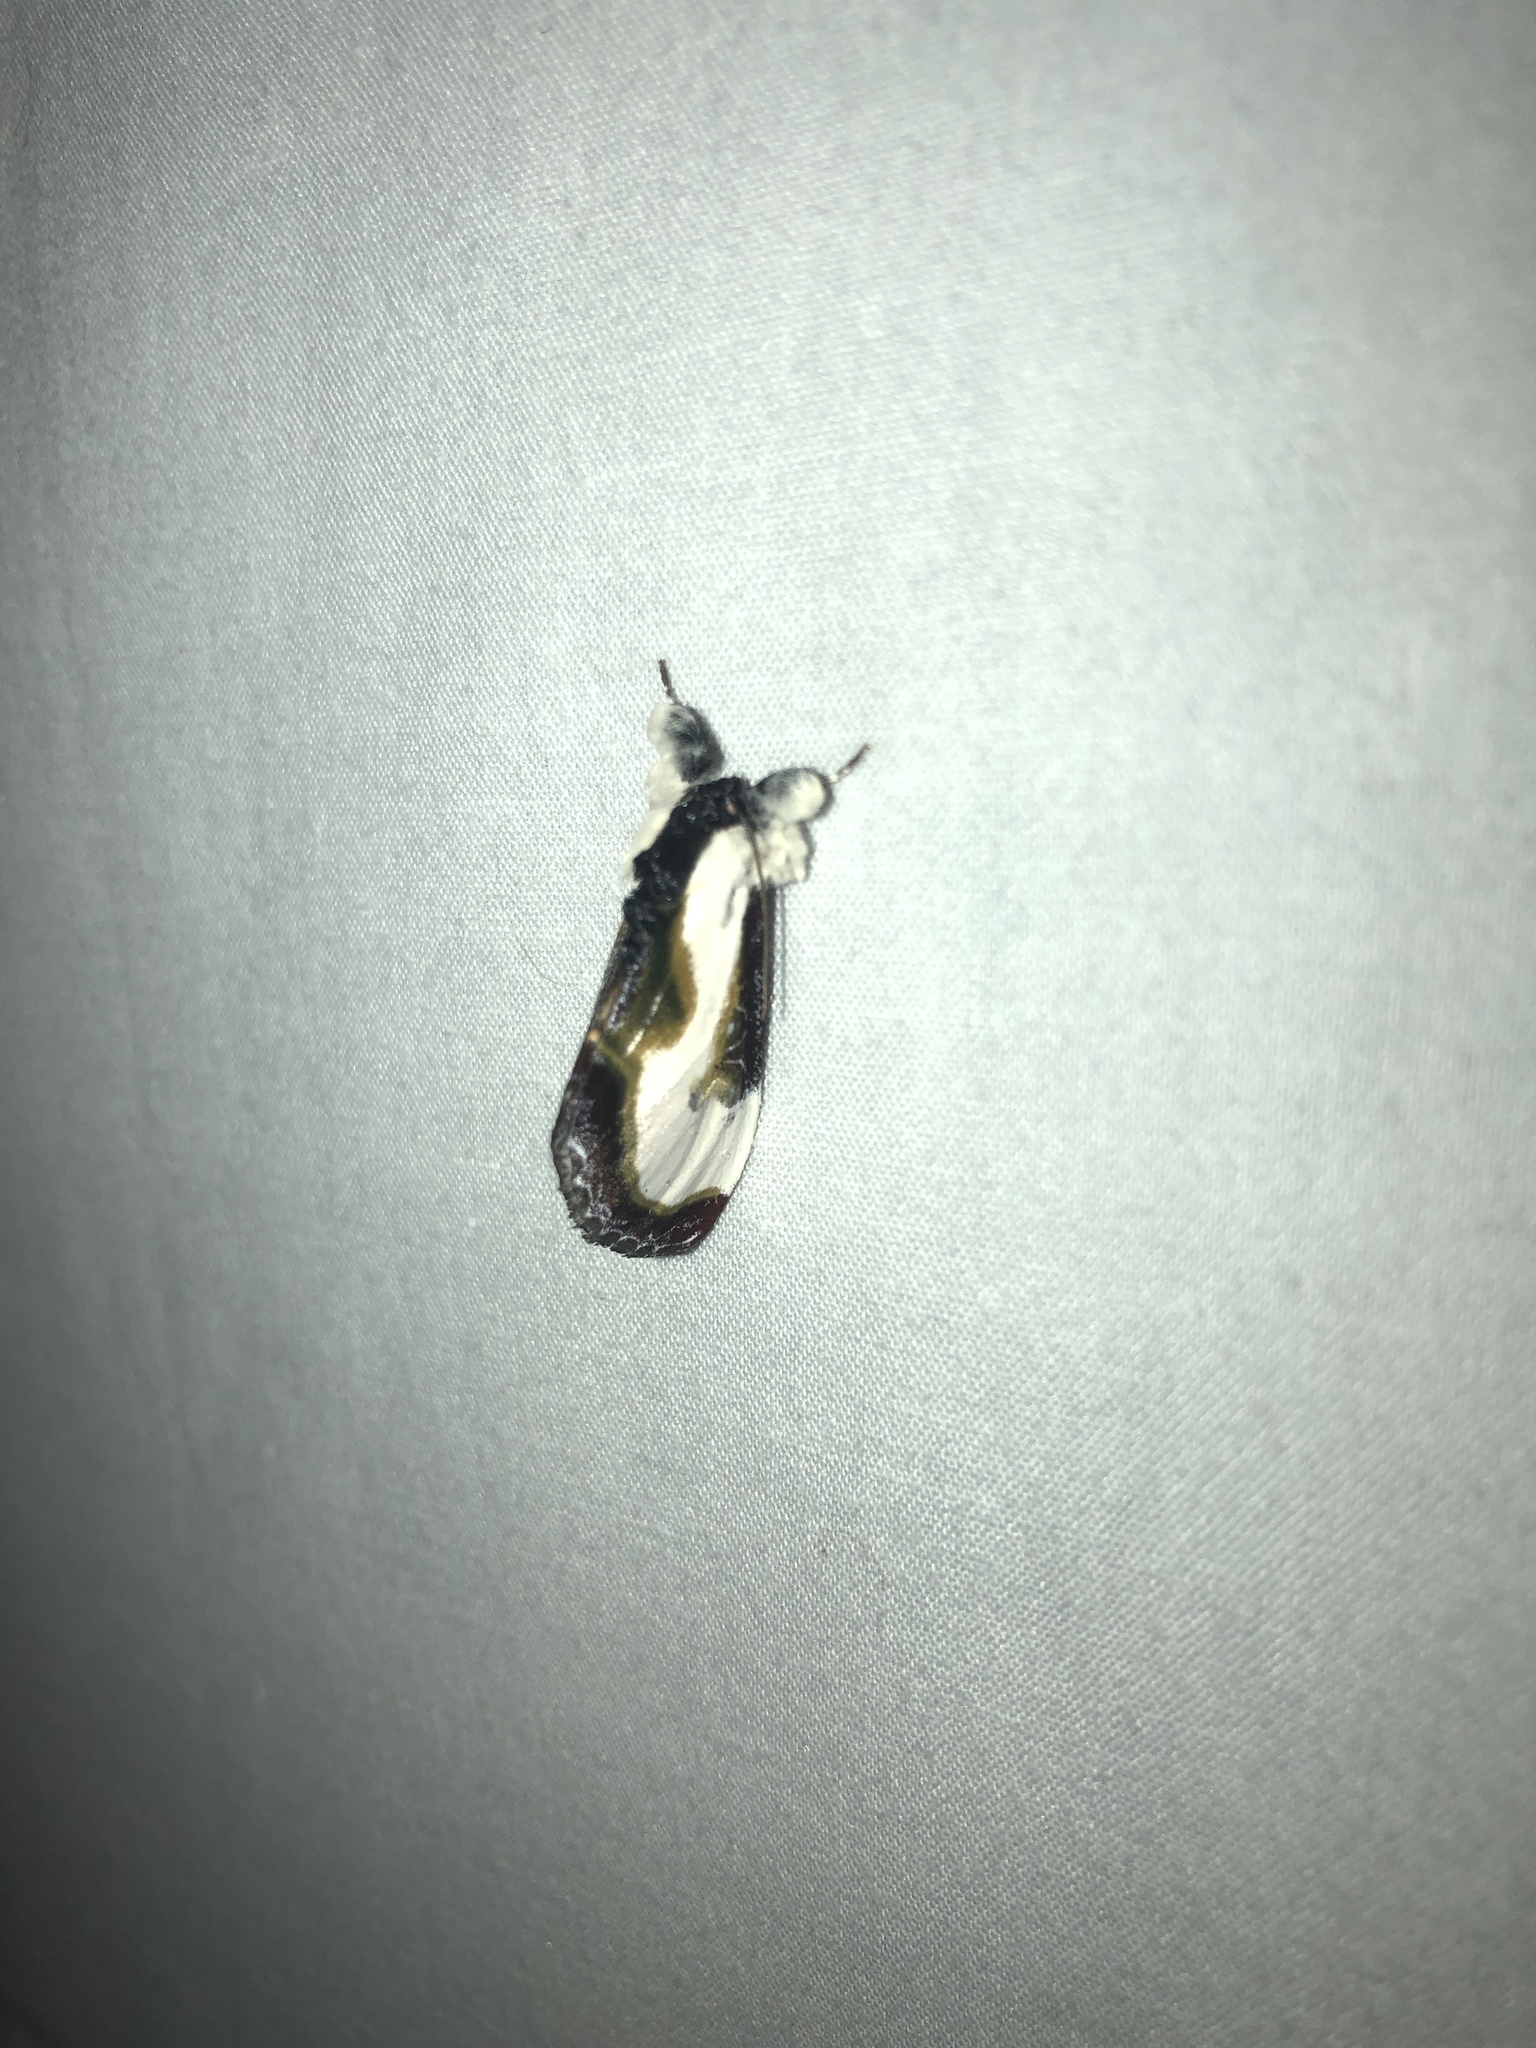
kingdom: Animalia
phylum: Arthropoda
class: Insecta
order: Lepidoptera
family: Noctuidae
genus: Eudryas
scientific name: Eudryas grata
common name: Beautiful wood-nymph
